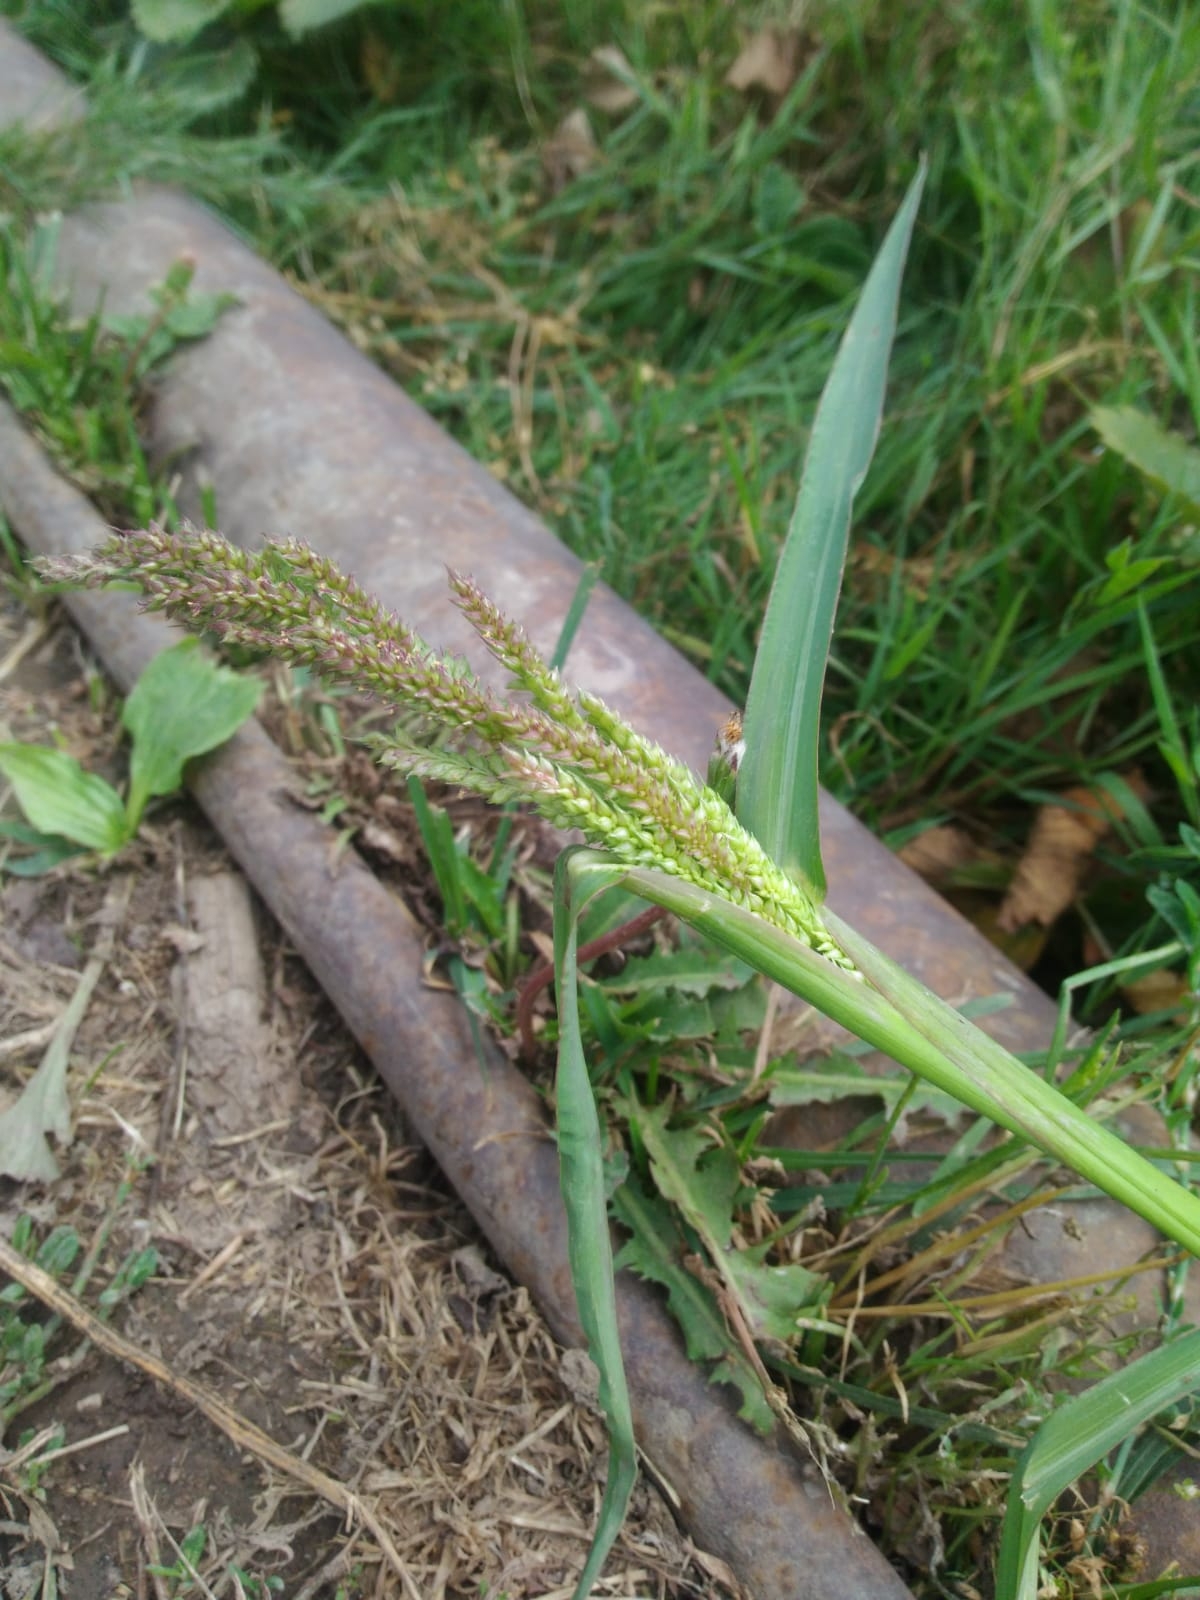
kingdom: Plantae
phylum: Tracheophyta
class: Liliopsida
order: Poales
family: Poaceae
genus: Echinochloa
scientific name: Echinochloa crus-galli
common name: Cockspur
